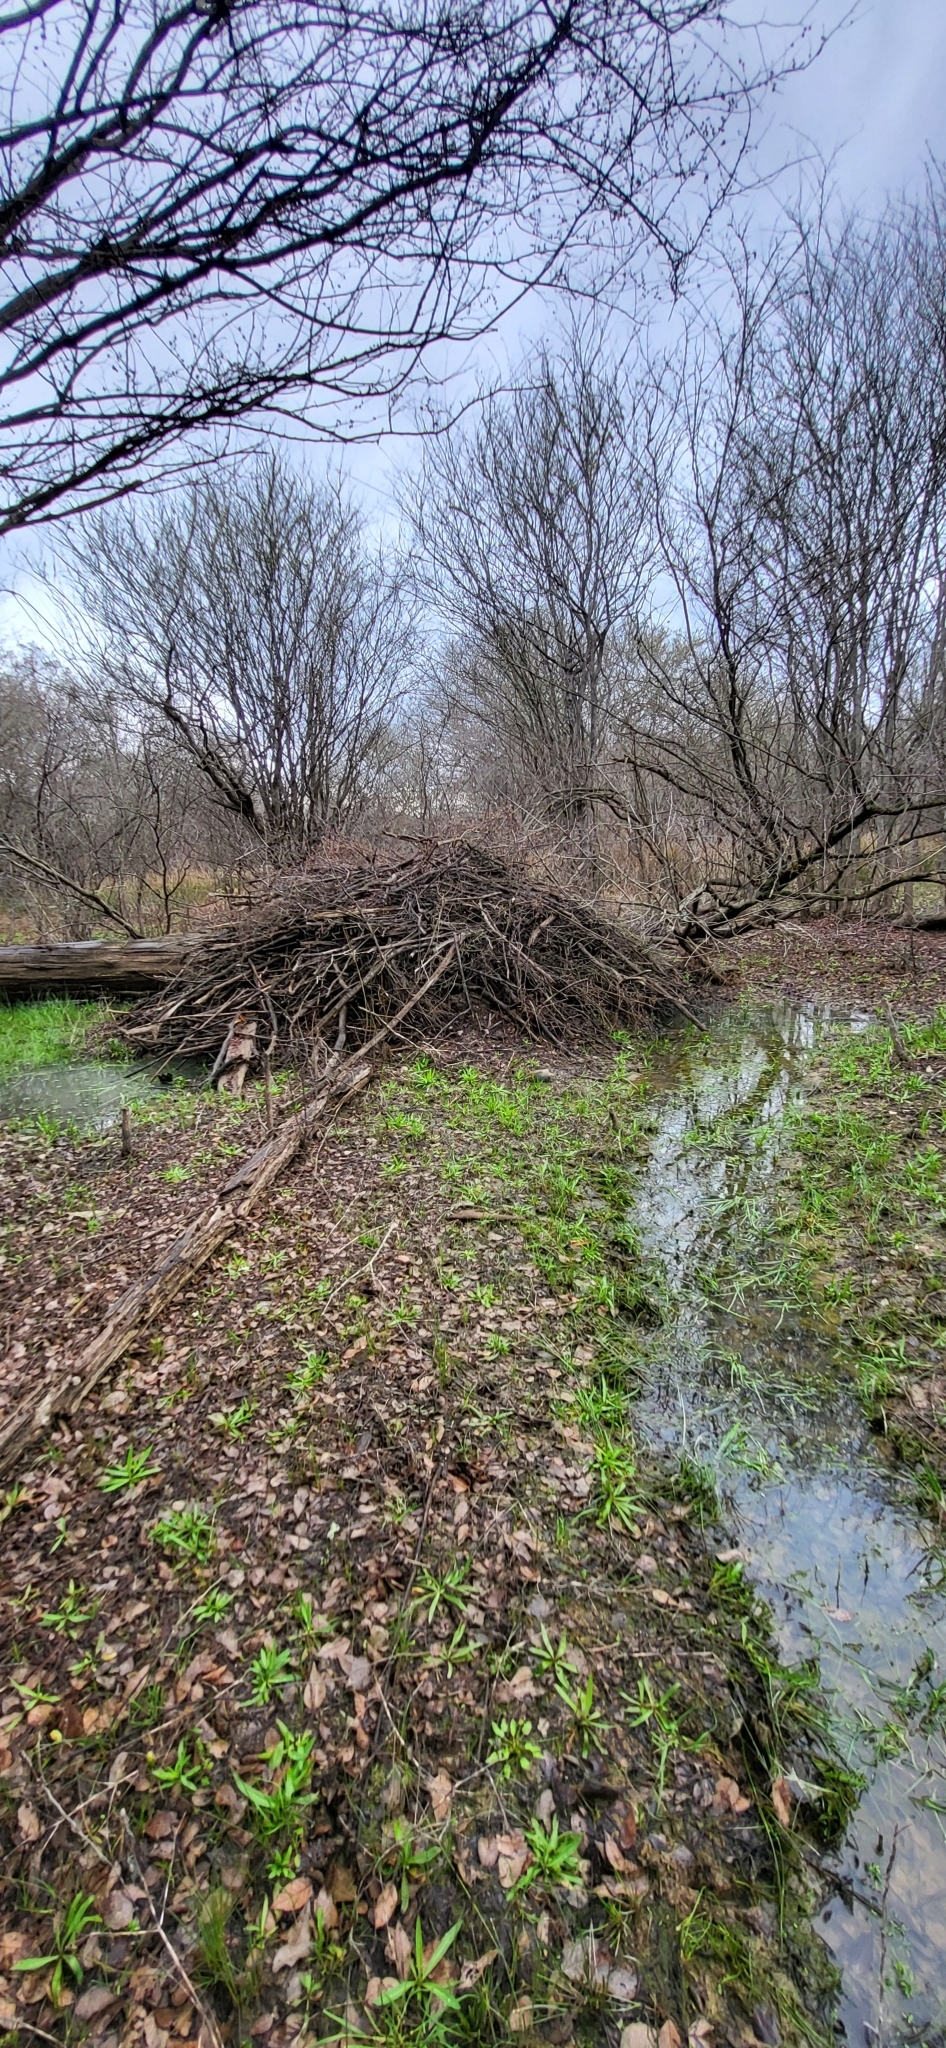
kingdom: Animalia
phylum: Chordata
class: Mammalia
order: Rodentia
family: Castoridae
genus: Castor
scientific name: Castor canadensis
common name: American beaver
